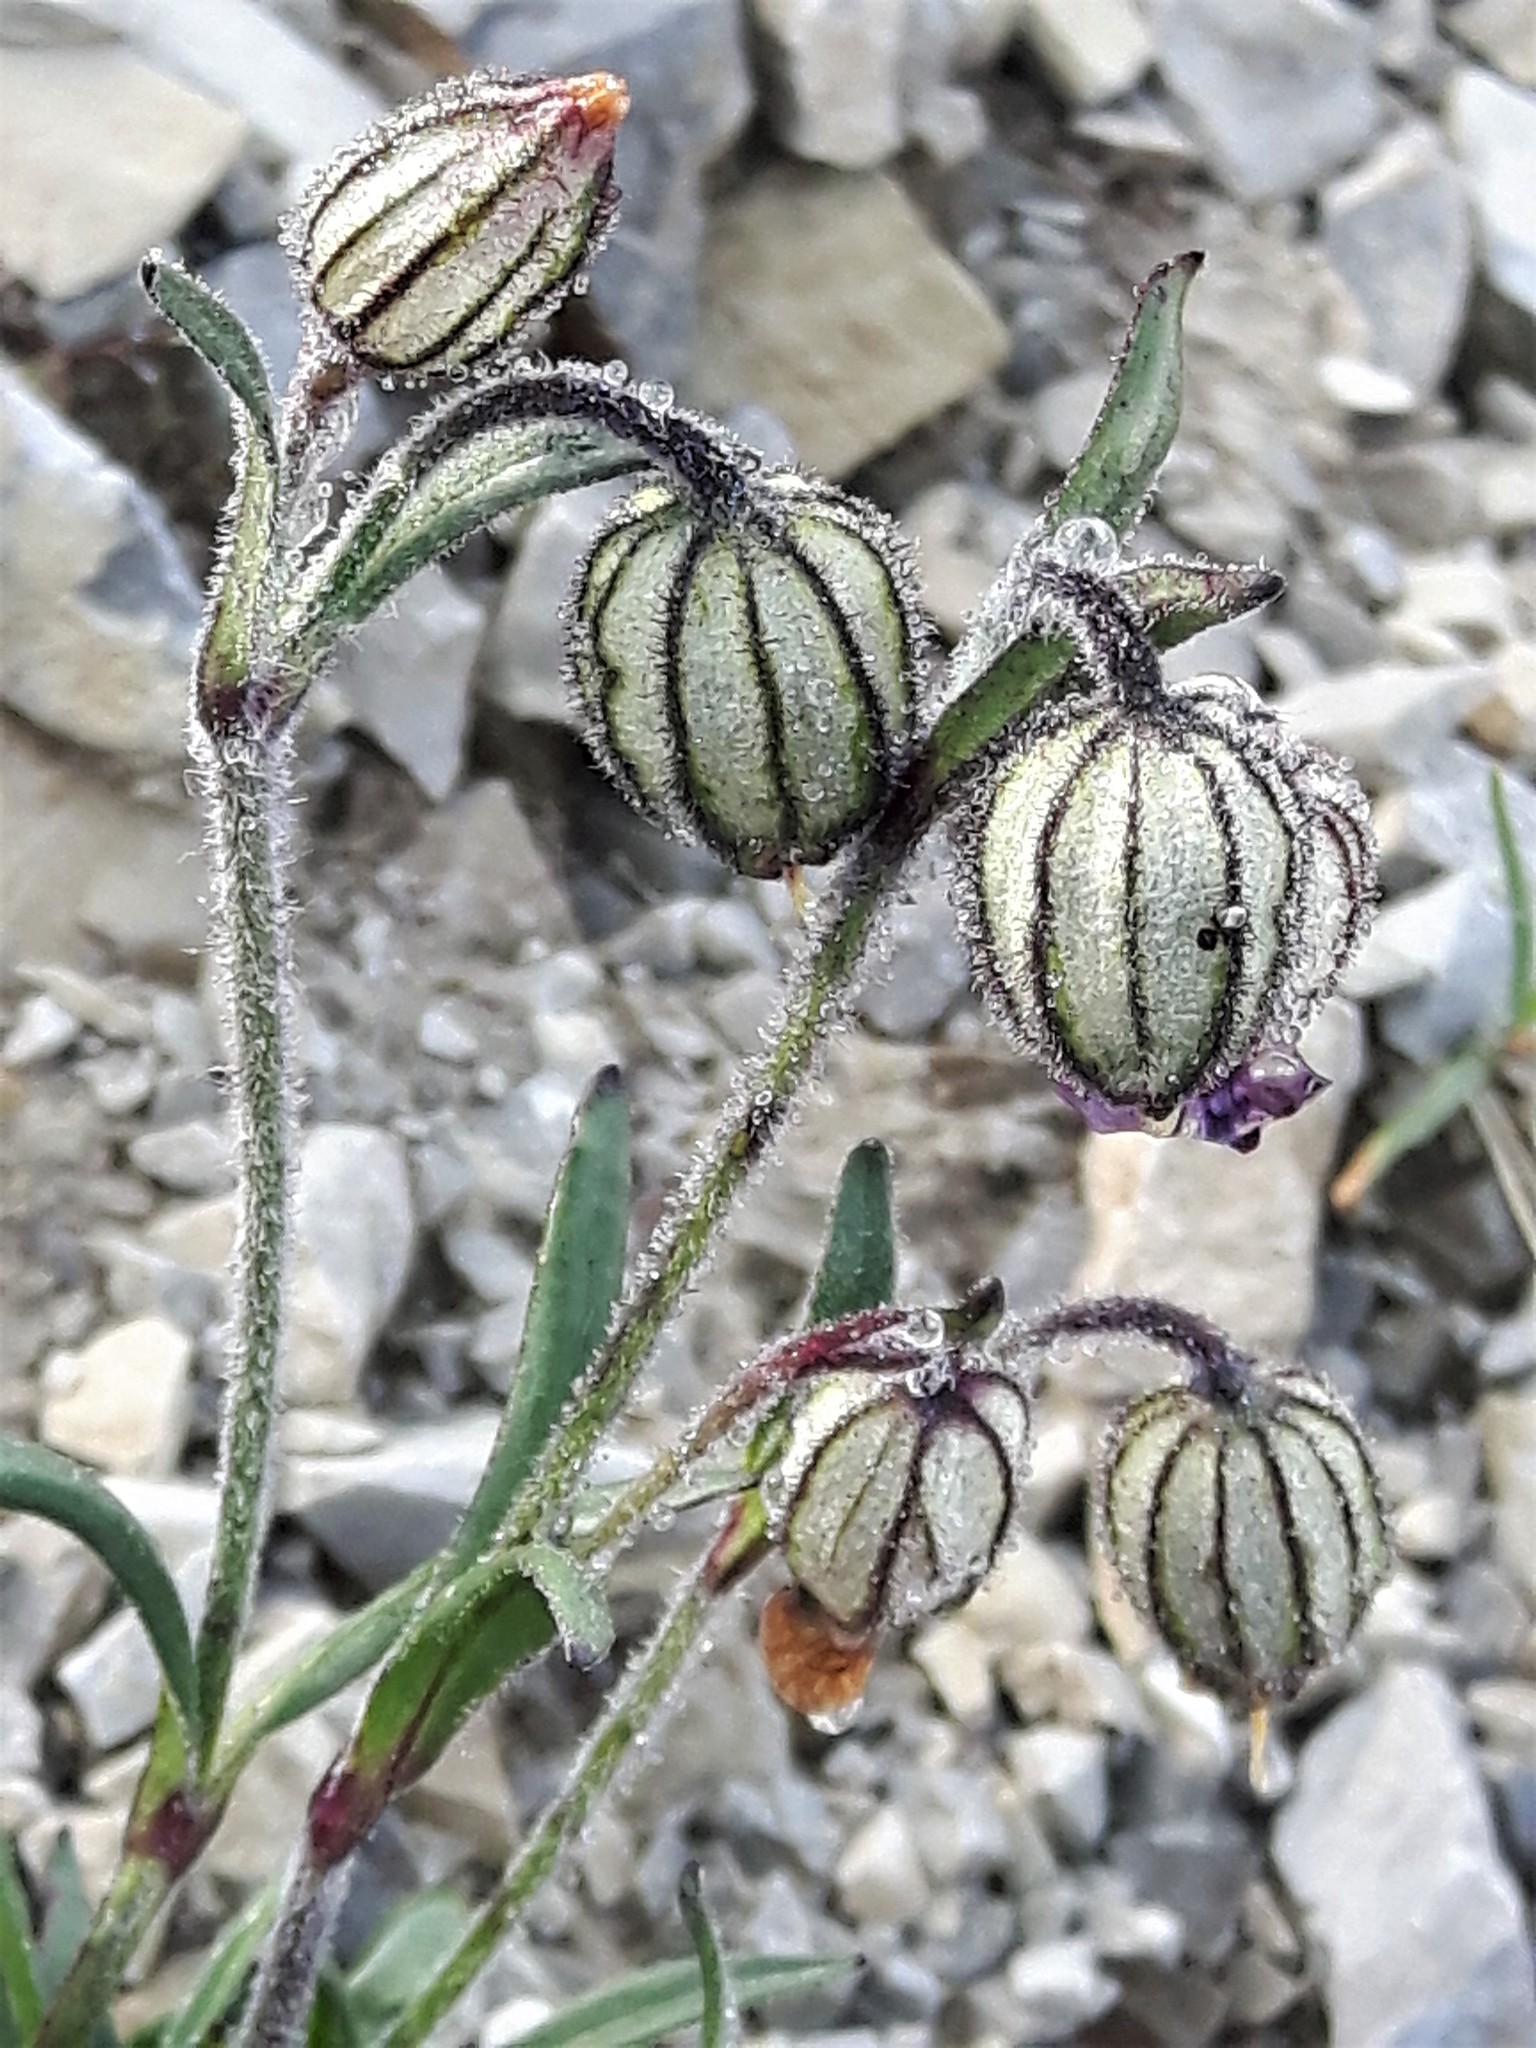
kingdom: Plantae
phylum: Tracheophyta
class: Magnoliopsida
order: Caryophyllales
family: Caryophyllaceae
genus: Silene
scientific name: Silene uralensis
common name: Nodding campion
